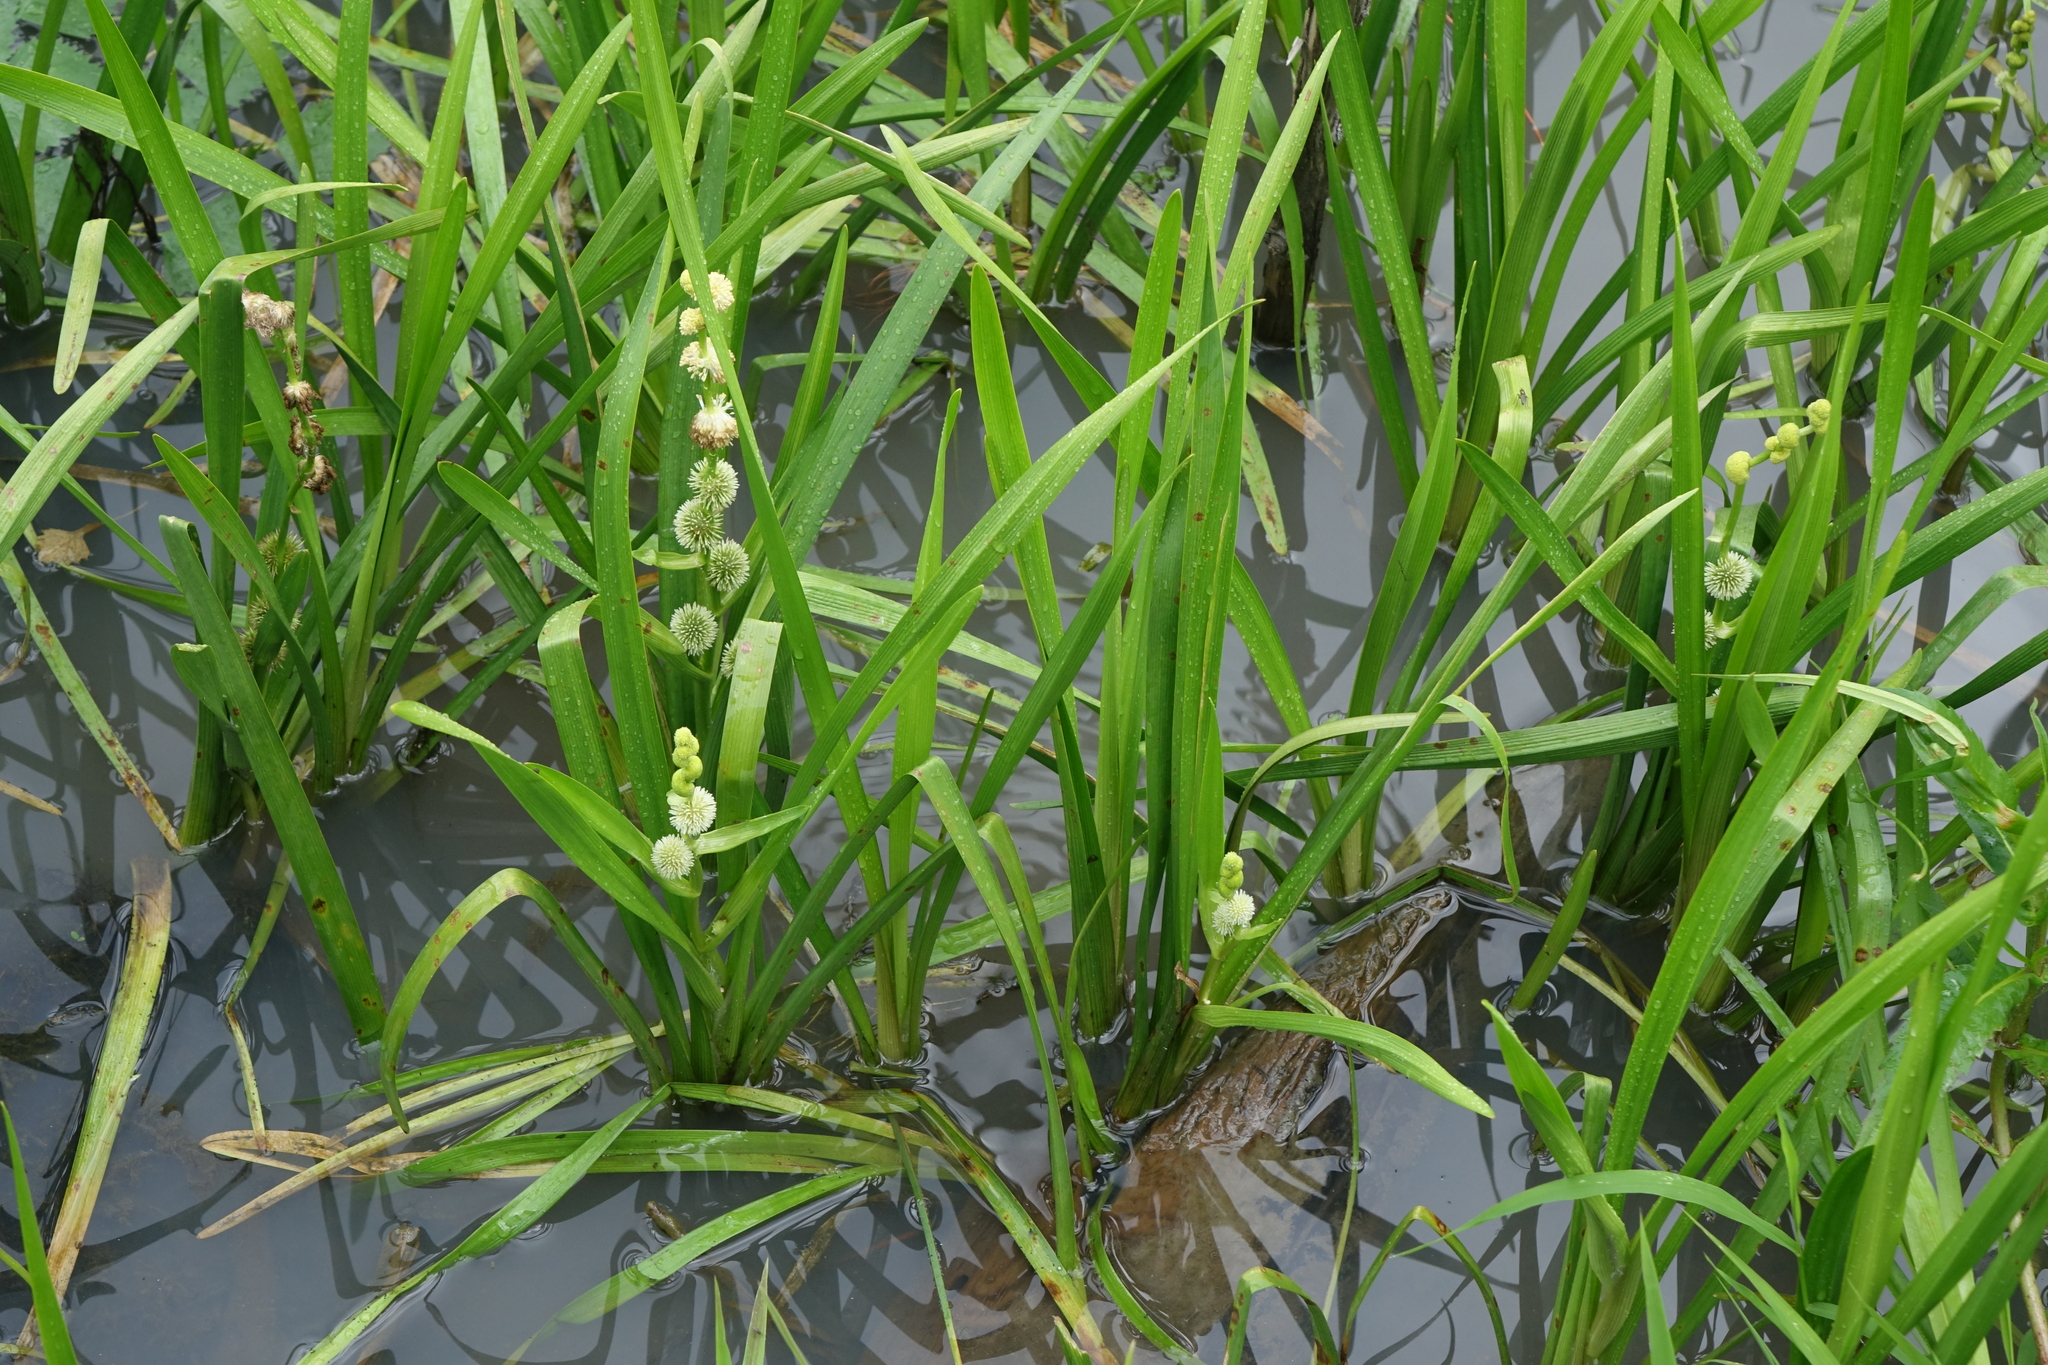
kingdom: Plantae
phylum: Tracheophyta
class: Liliopsida
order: Poales
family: Typhaceae
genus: Sparganium
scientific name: Sparganium emersum
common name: Unbranched bur-reed
